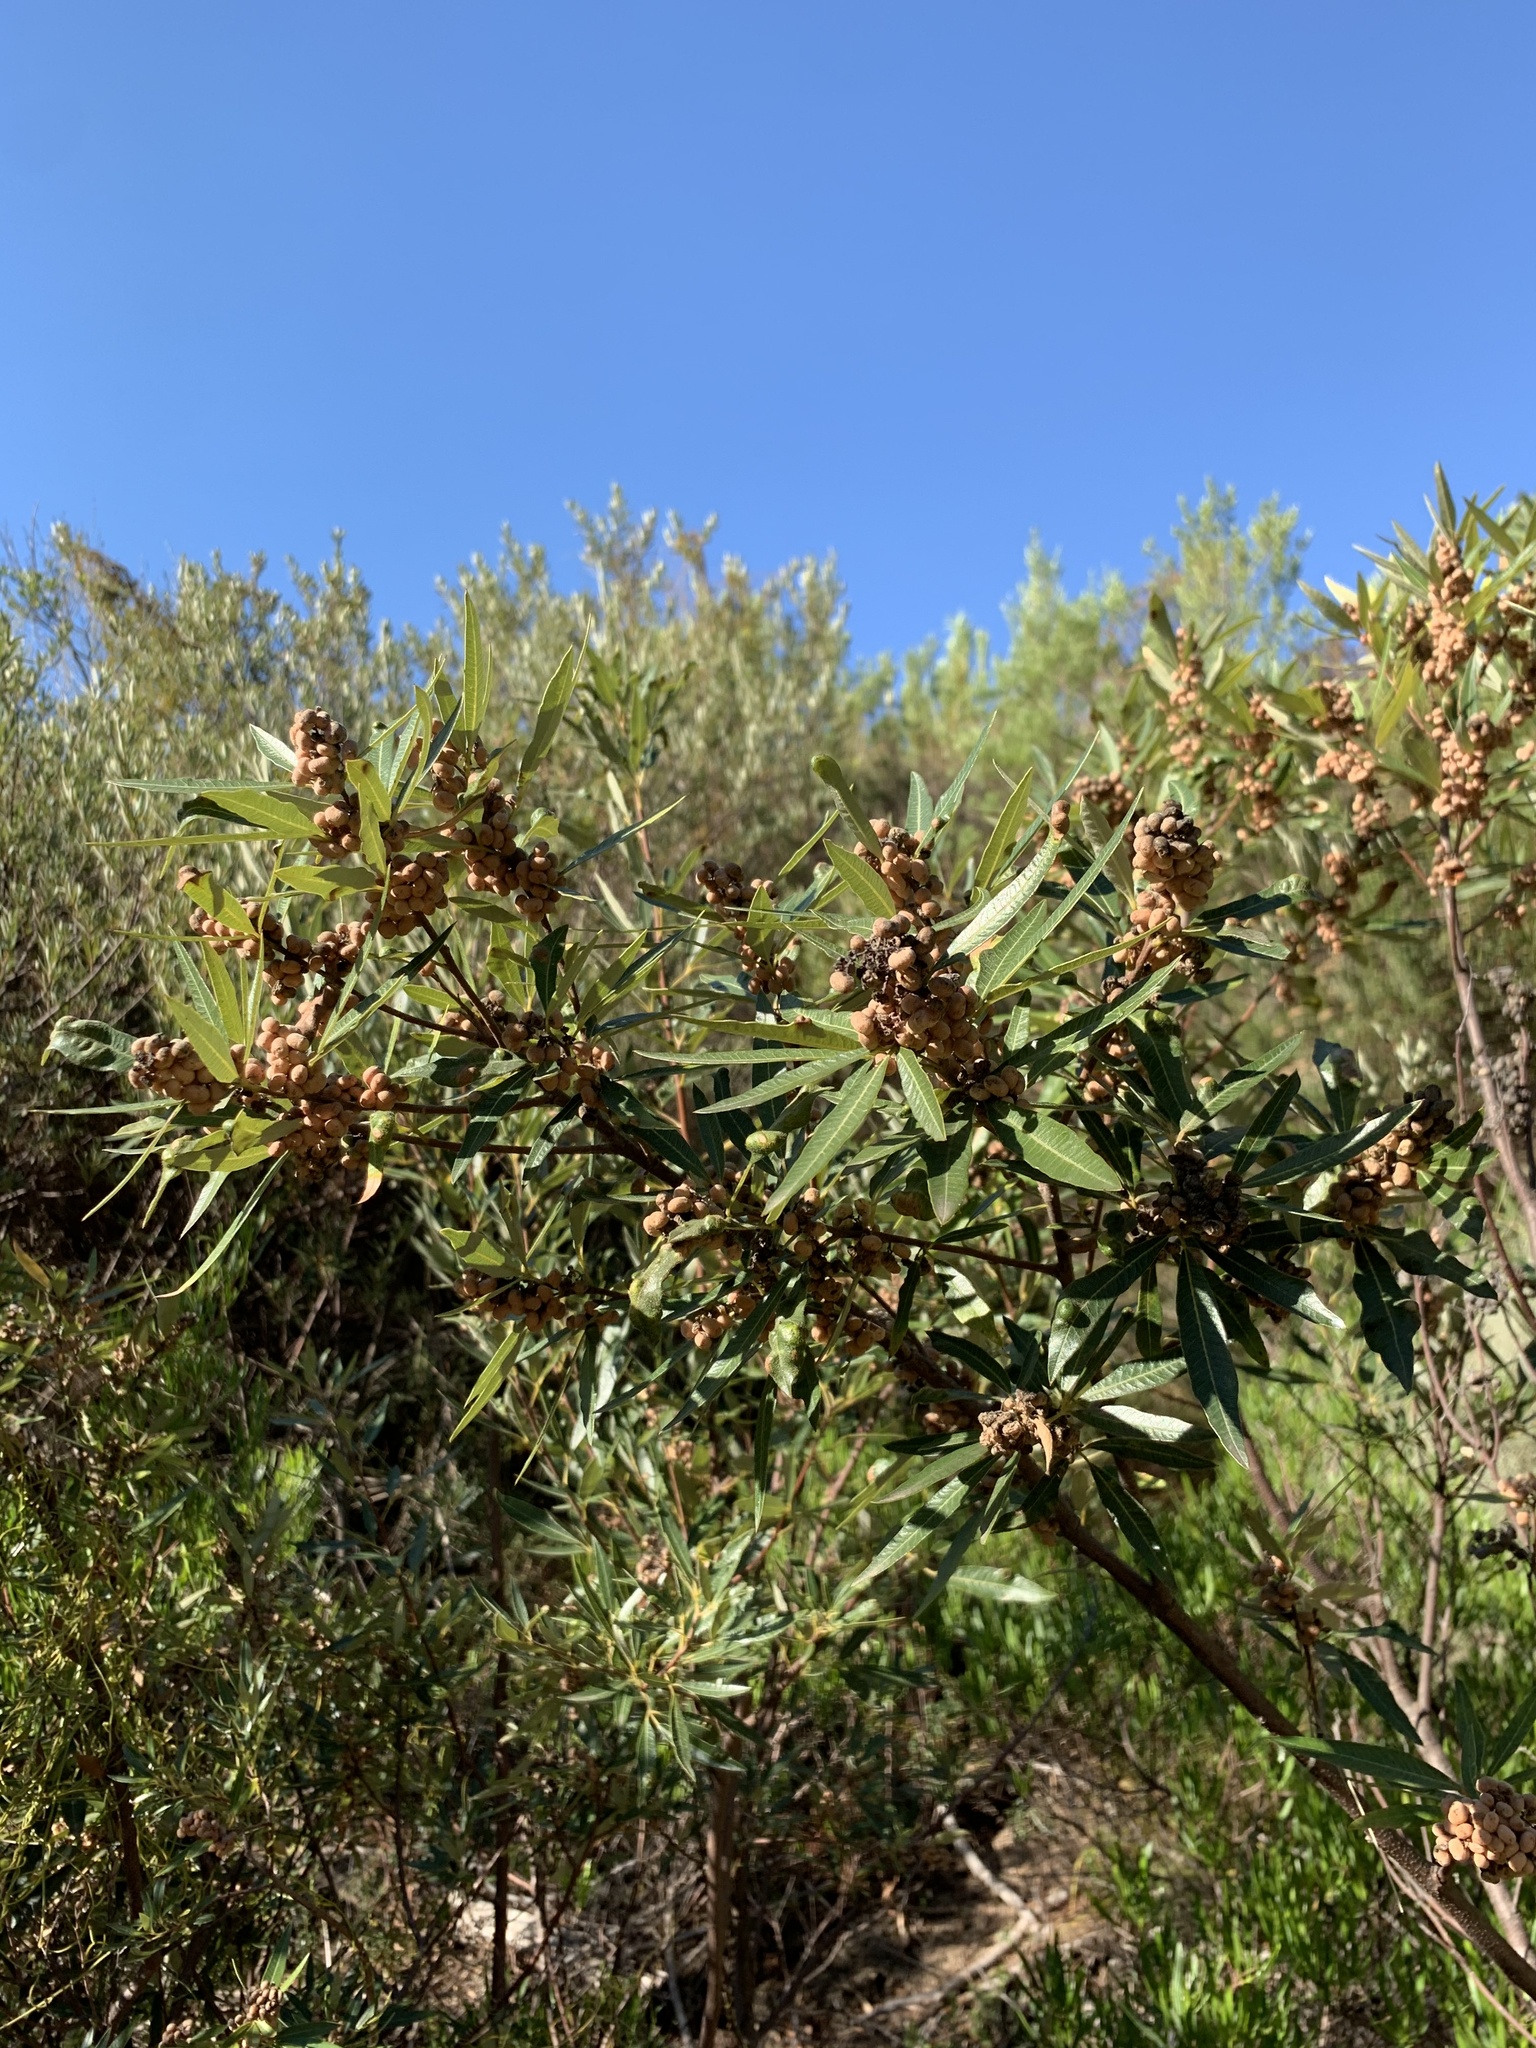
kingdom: Plantae
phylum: Tracheophyta
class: Magnoliopsida
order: Sapindales
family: Anacardiaceae
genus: Searsia
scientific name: Searsia angustifolia
